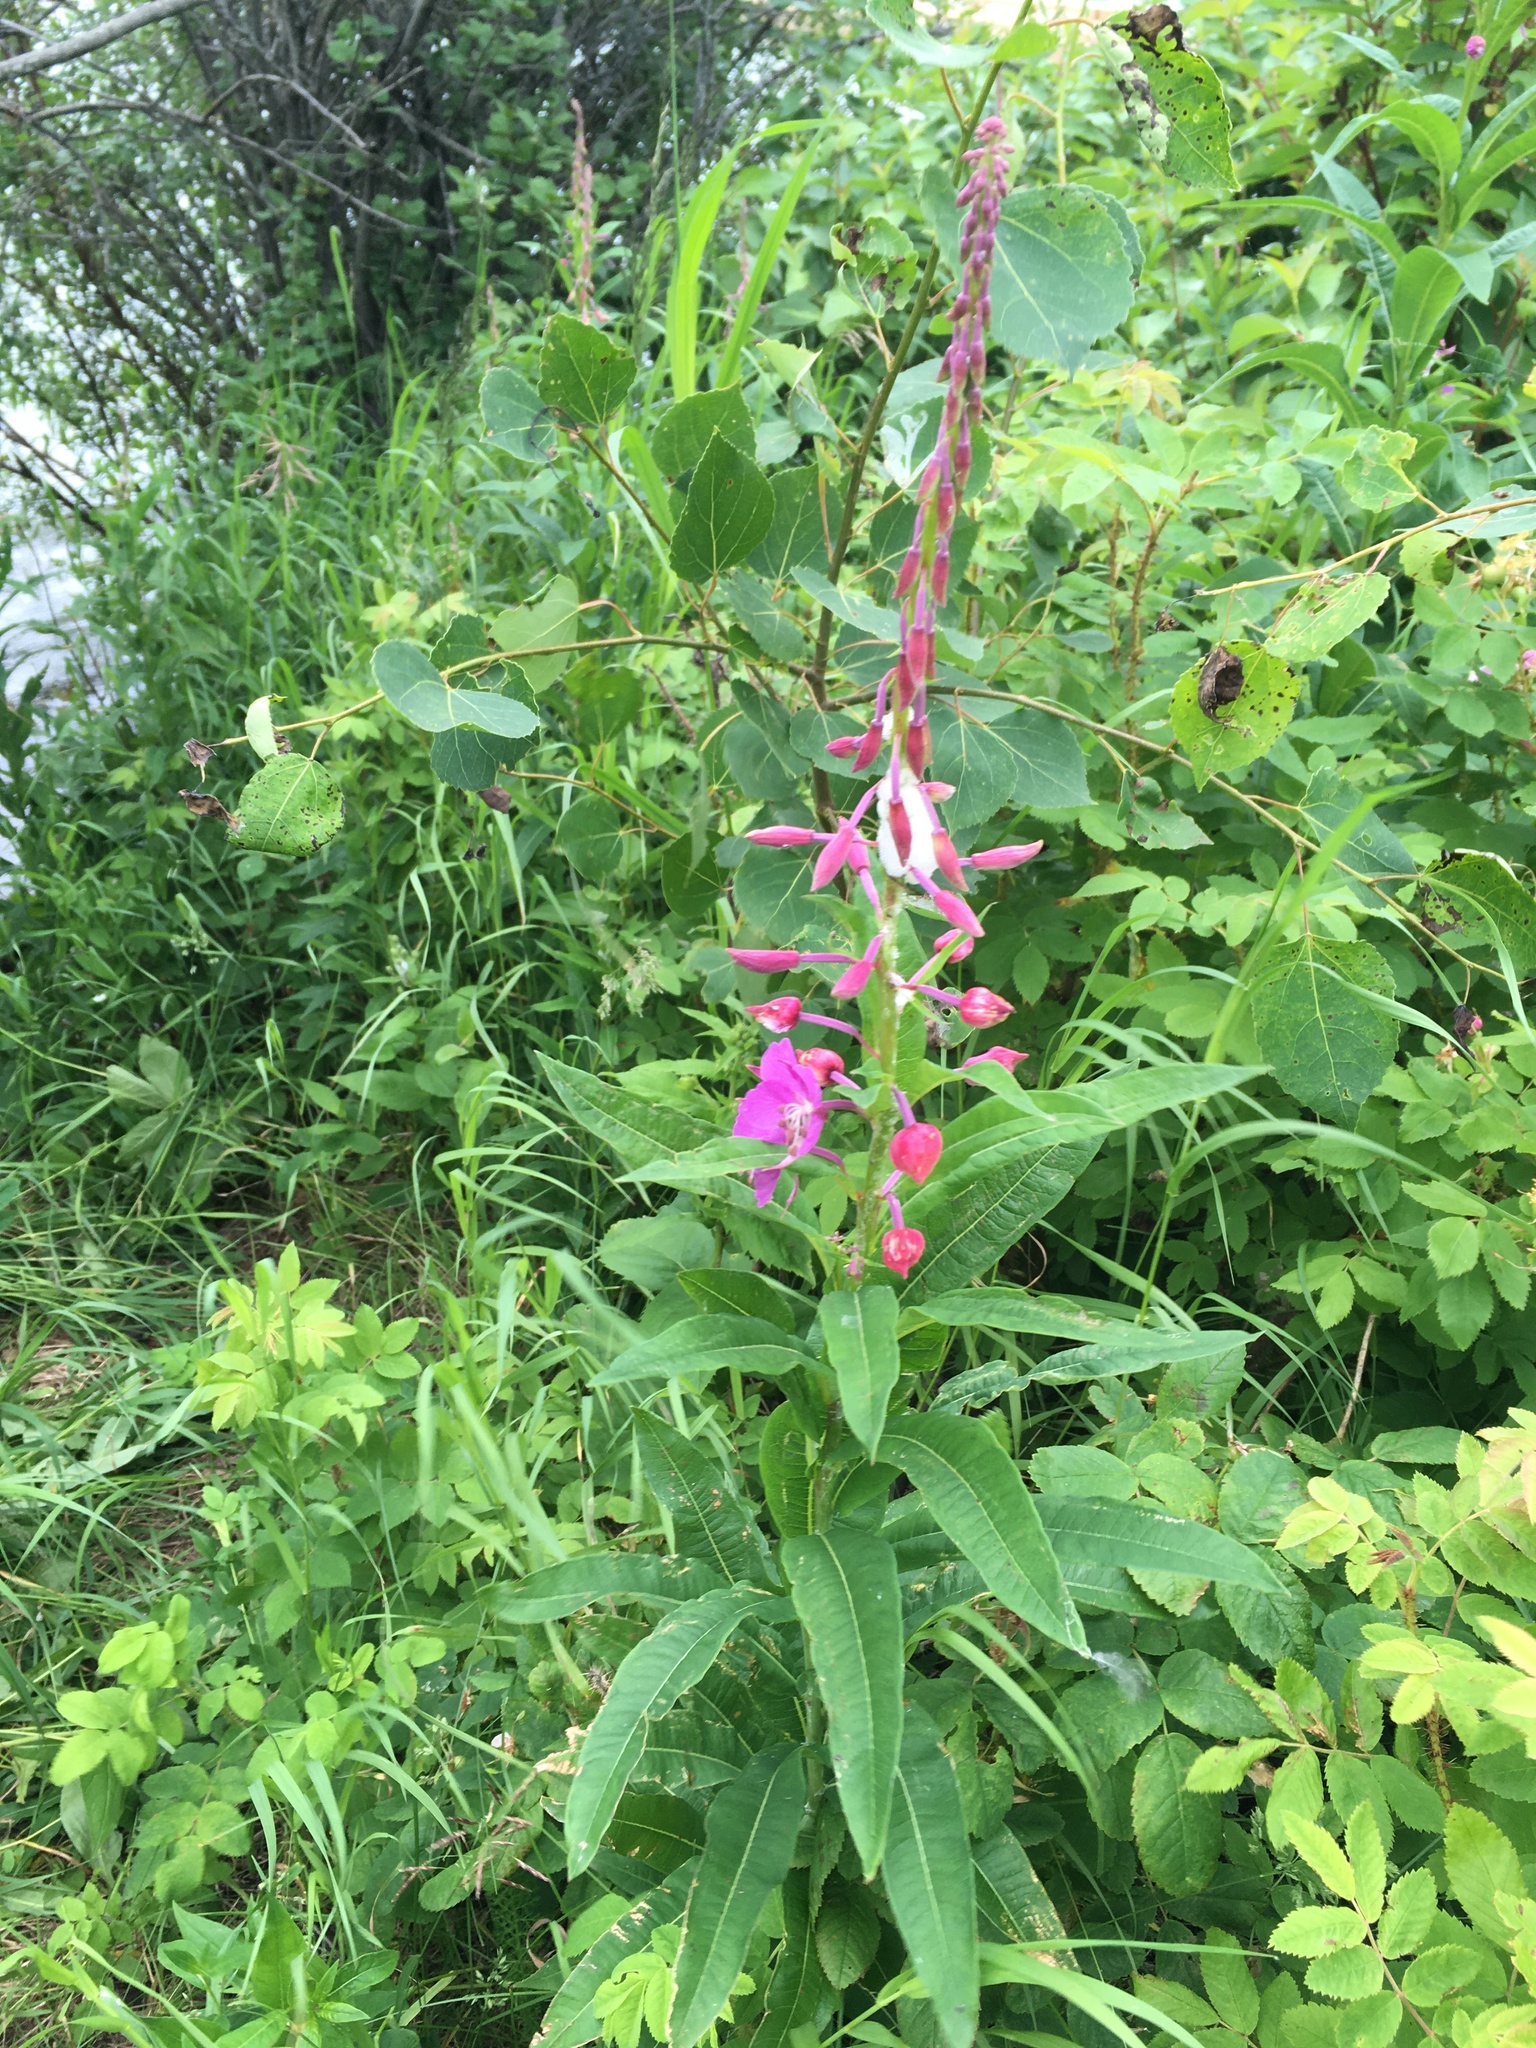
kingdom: Plantae
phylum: Tracheophyta
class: Magnoliopsida
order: Myrtales
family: Onagraceae
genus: Chamaenerion
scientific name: Chamaenerion angustifolium
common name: Fireweed
